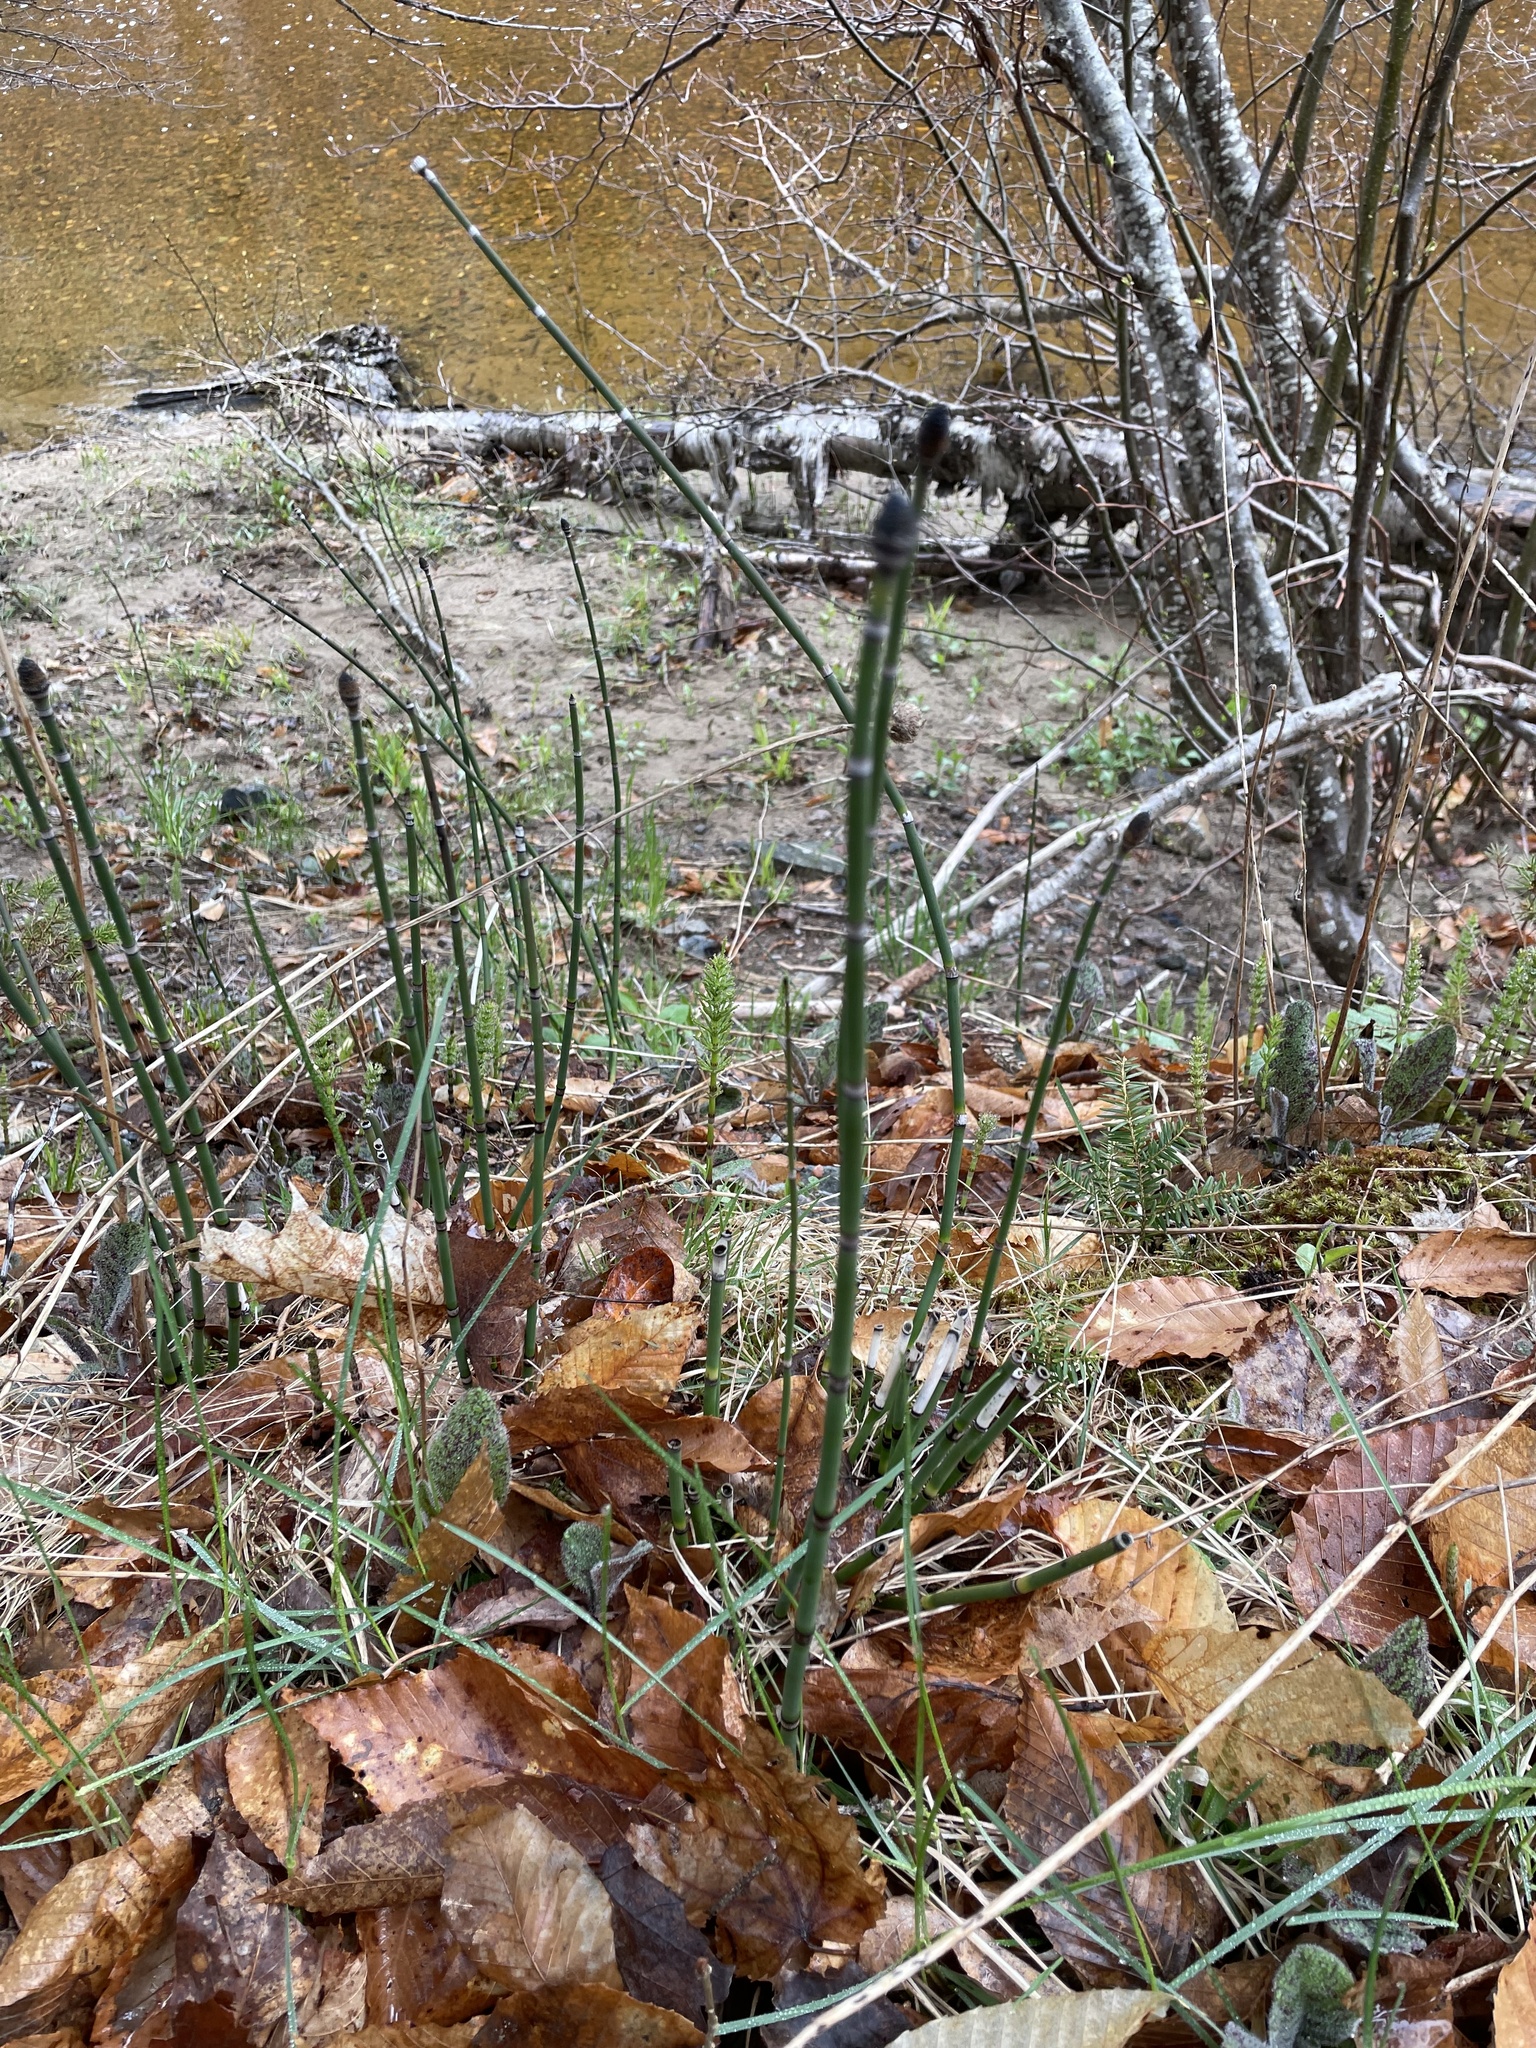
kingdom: Plantae
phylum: Tracheophyta
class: Polypodiopsida
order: Equisetales
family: Equisetaceae
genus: Equisetum
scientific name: Equisetum praealtum
